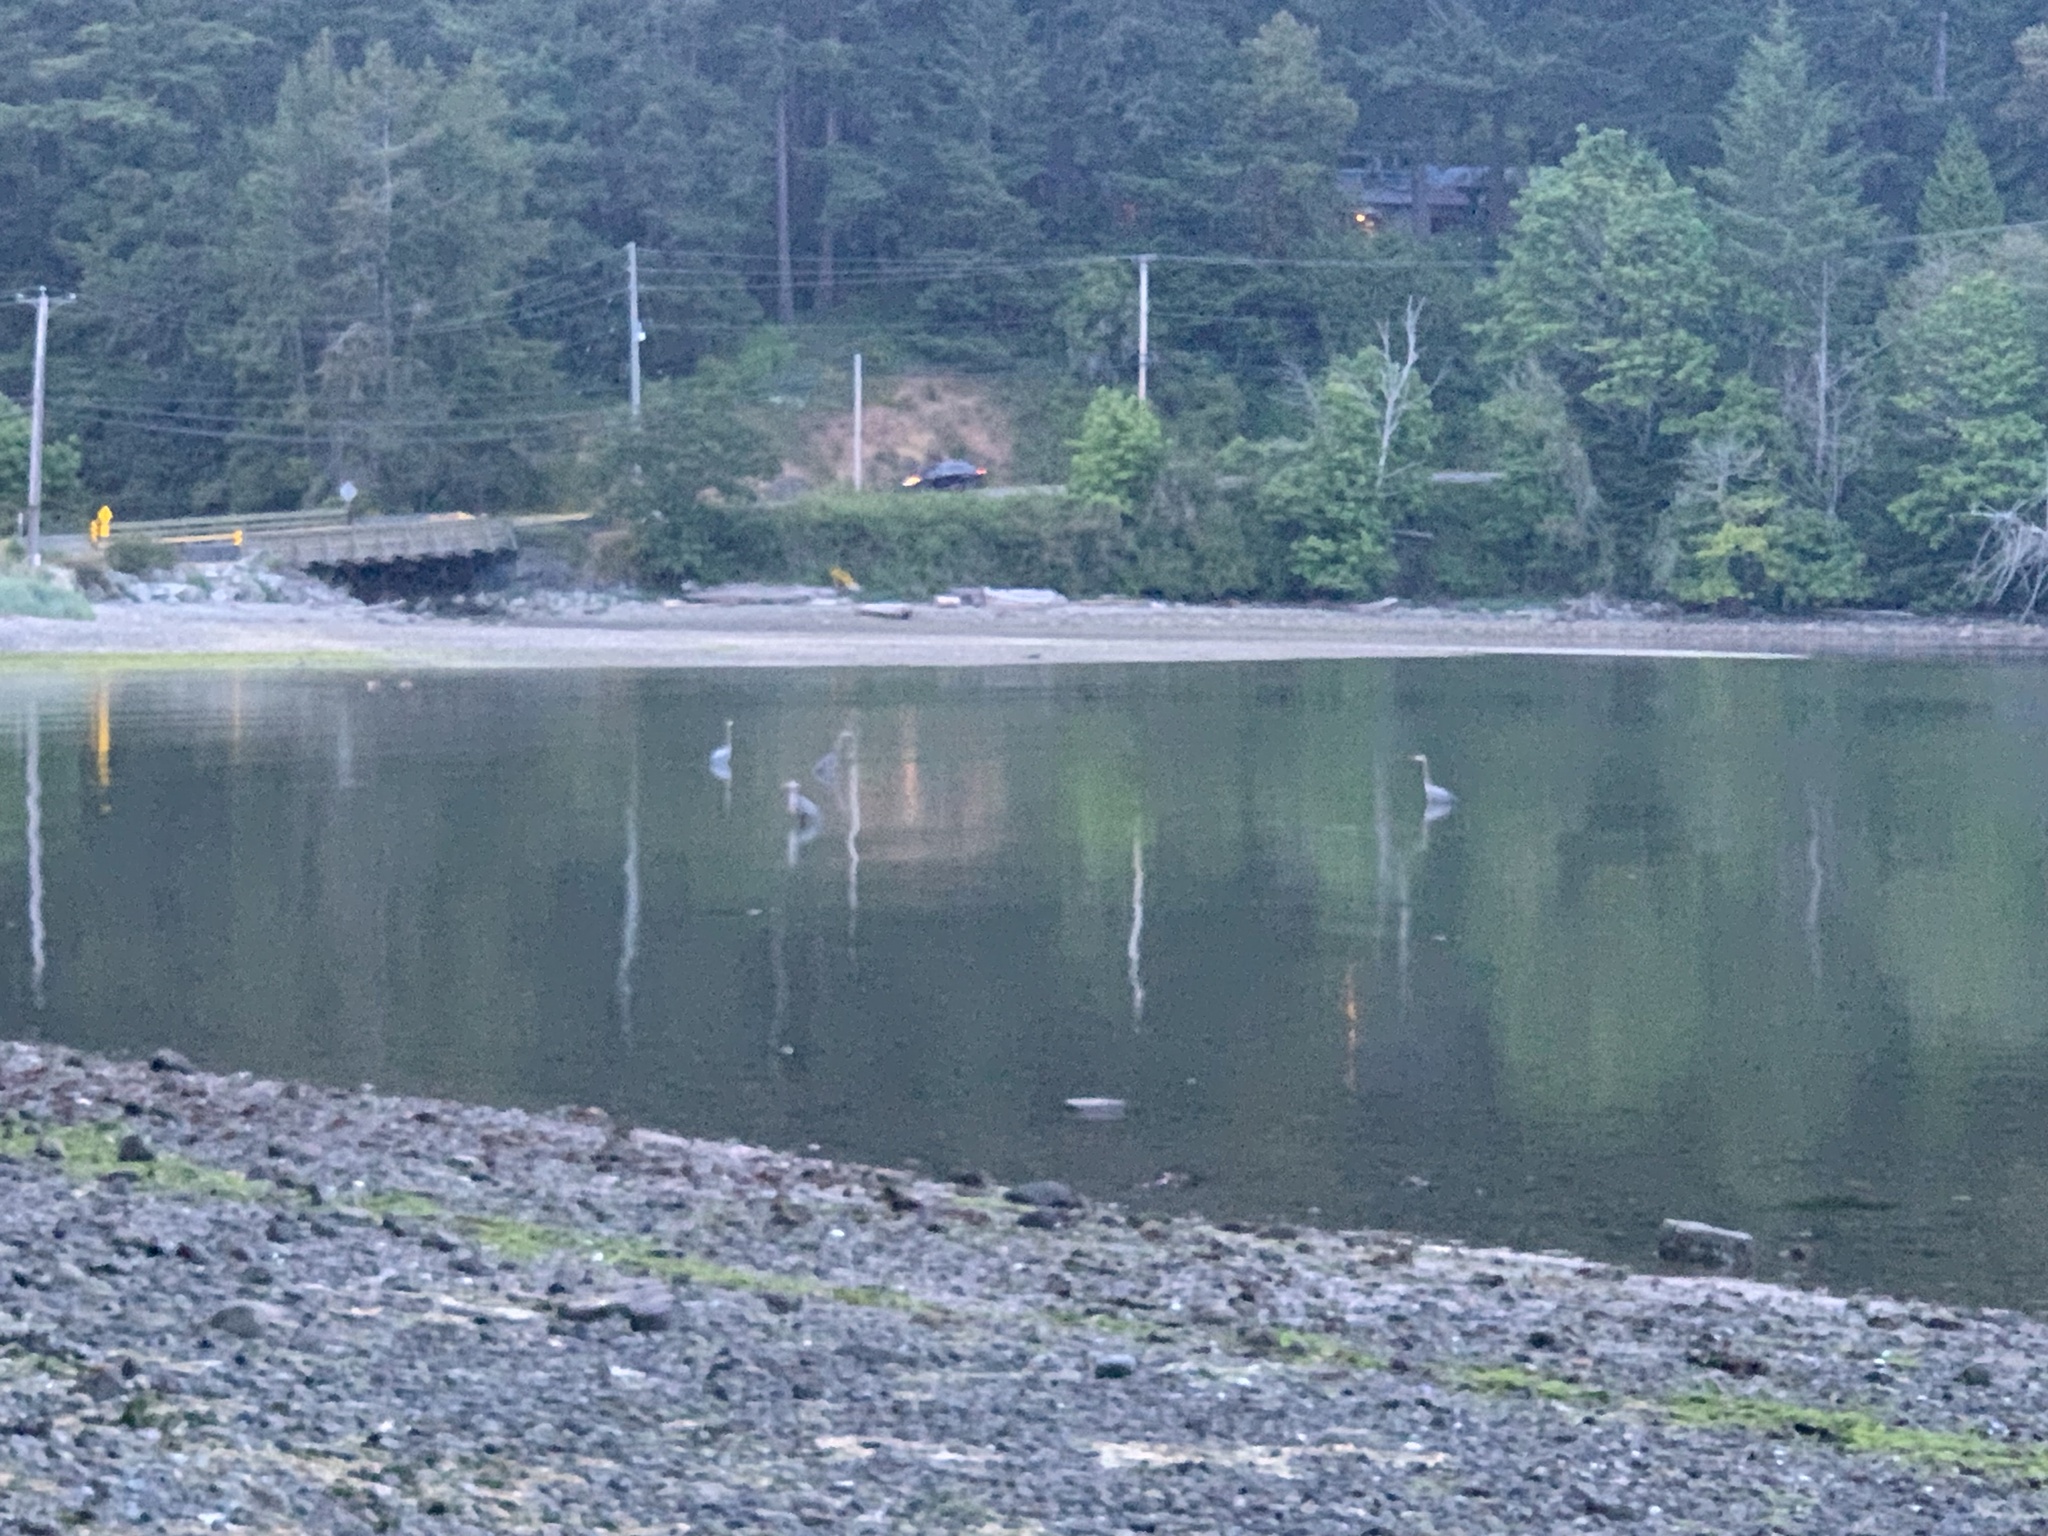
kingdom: Animalia
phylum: Chordata
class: Aves
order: Pelecaniformes
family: Ardeidae
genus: Ardea
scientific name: Ardea herodias
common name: Great blue heron
